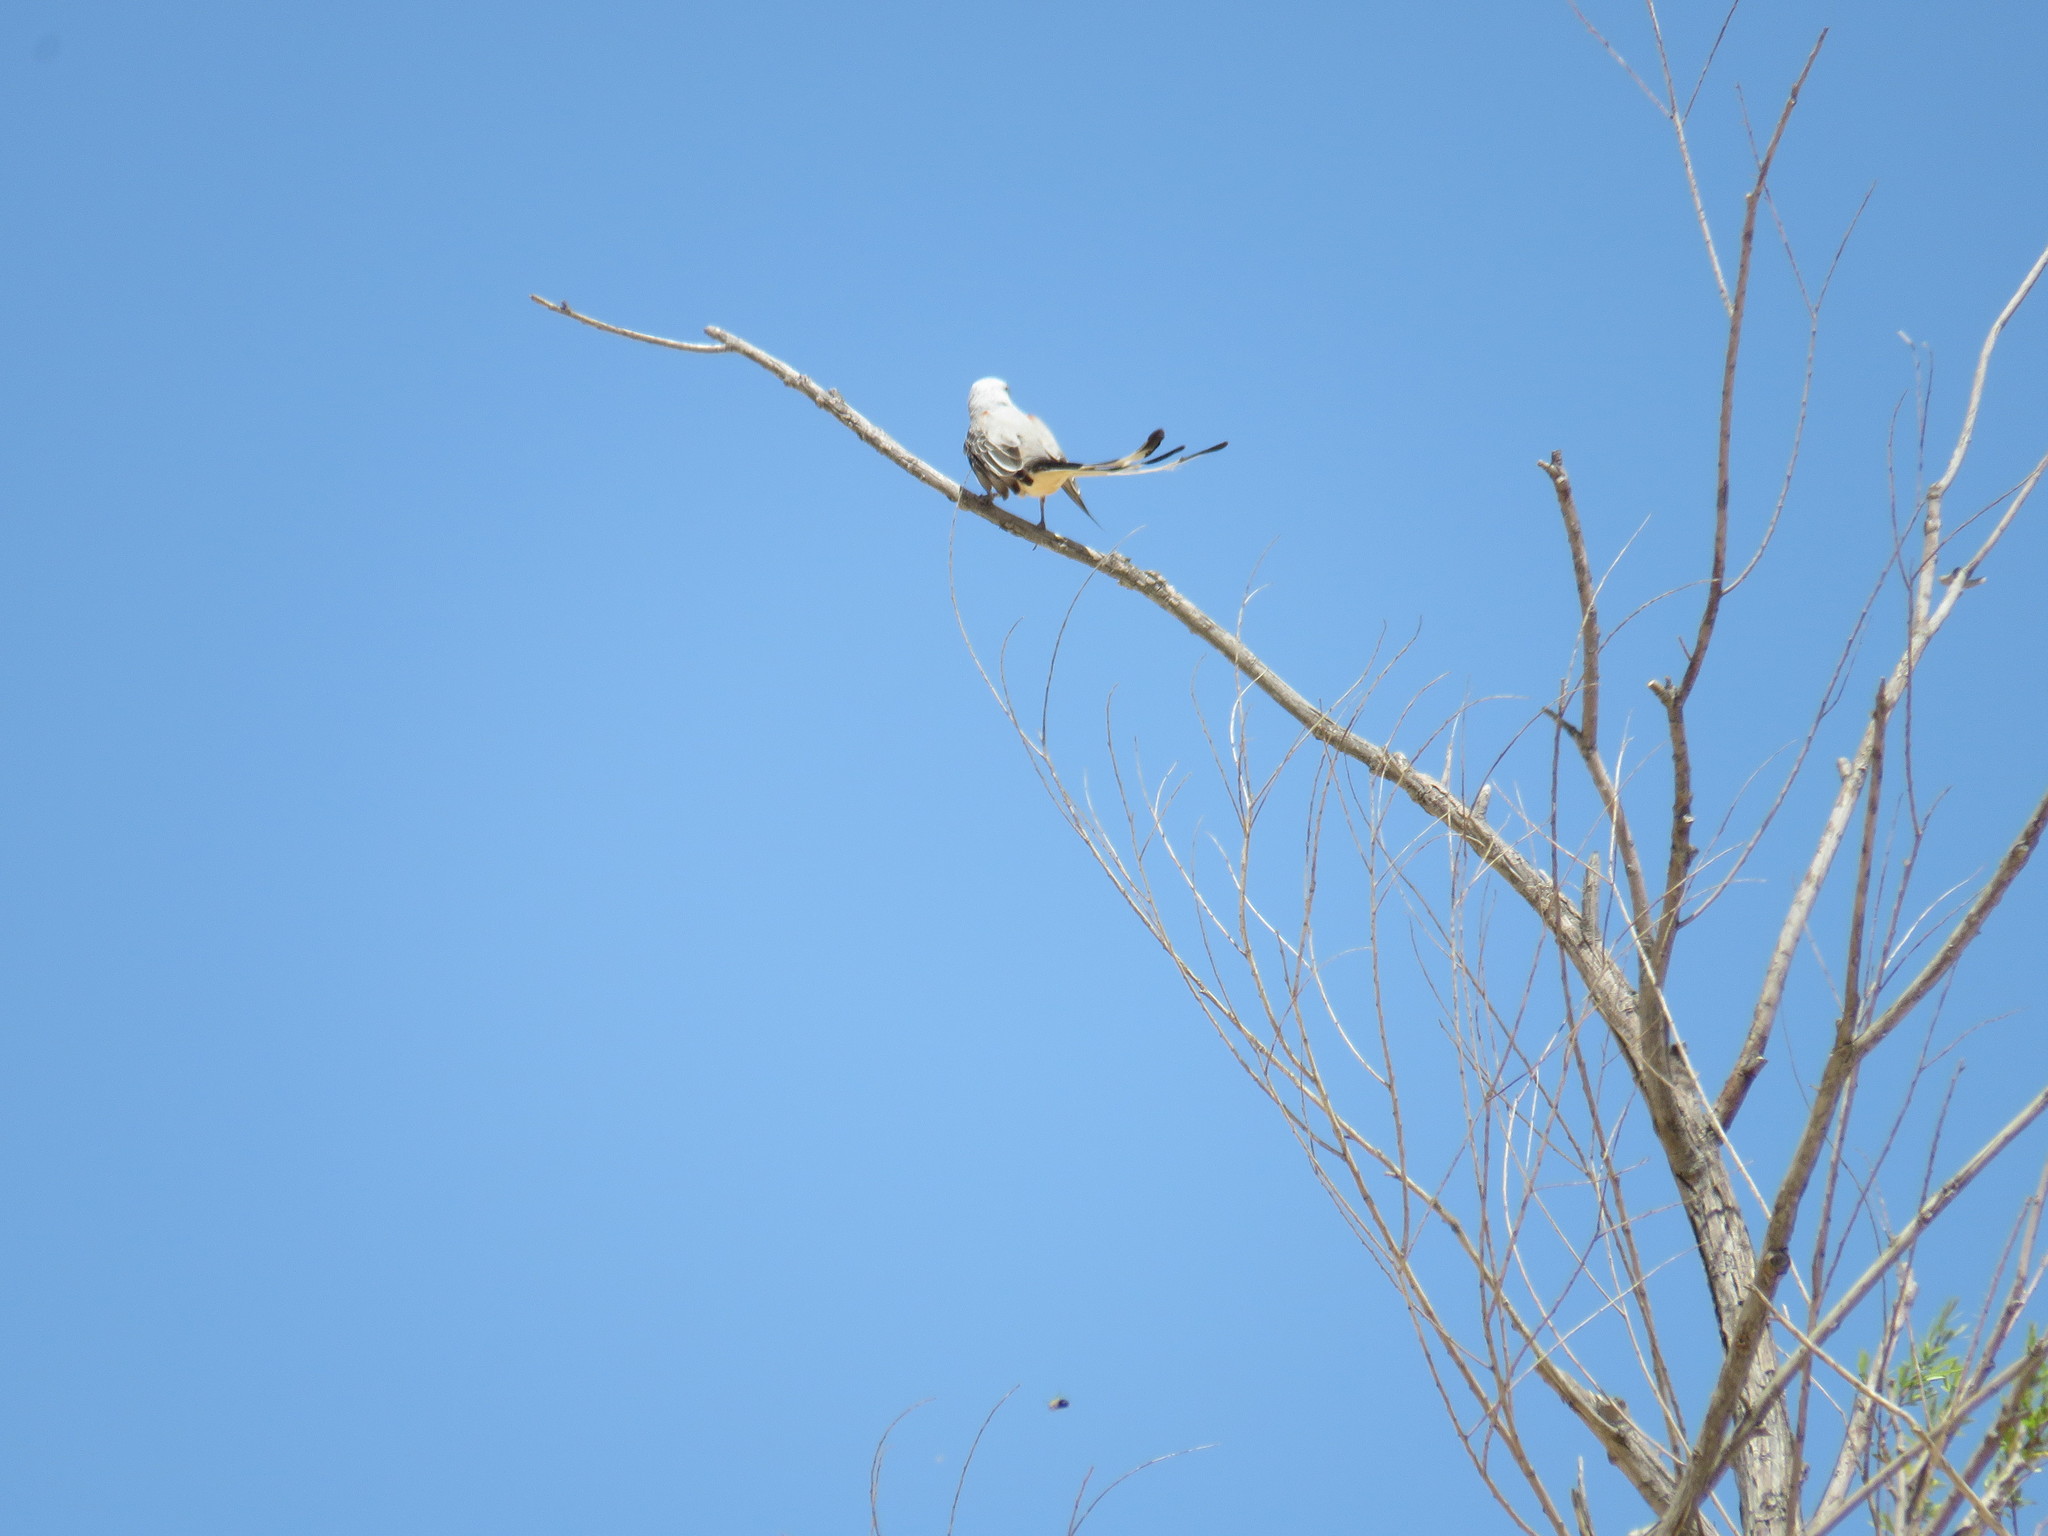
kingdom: Animalia
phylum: Chordata
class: Aves
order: Passeriformes
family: Tyrannidae
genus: Tyrannus
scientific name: Tyrannus forficatus
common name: Scissor-tailed flycatcher
